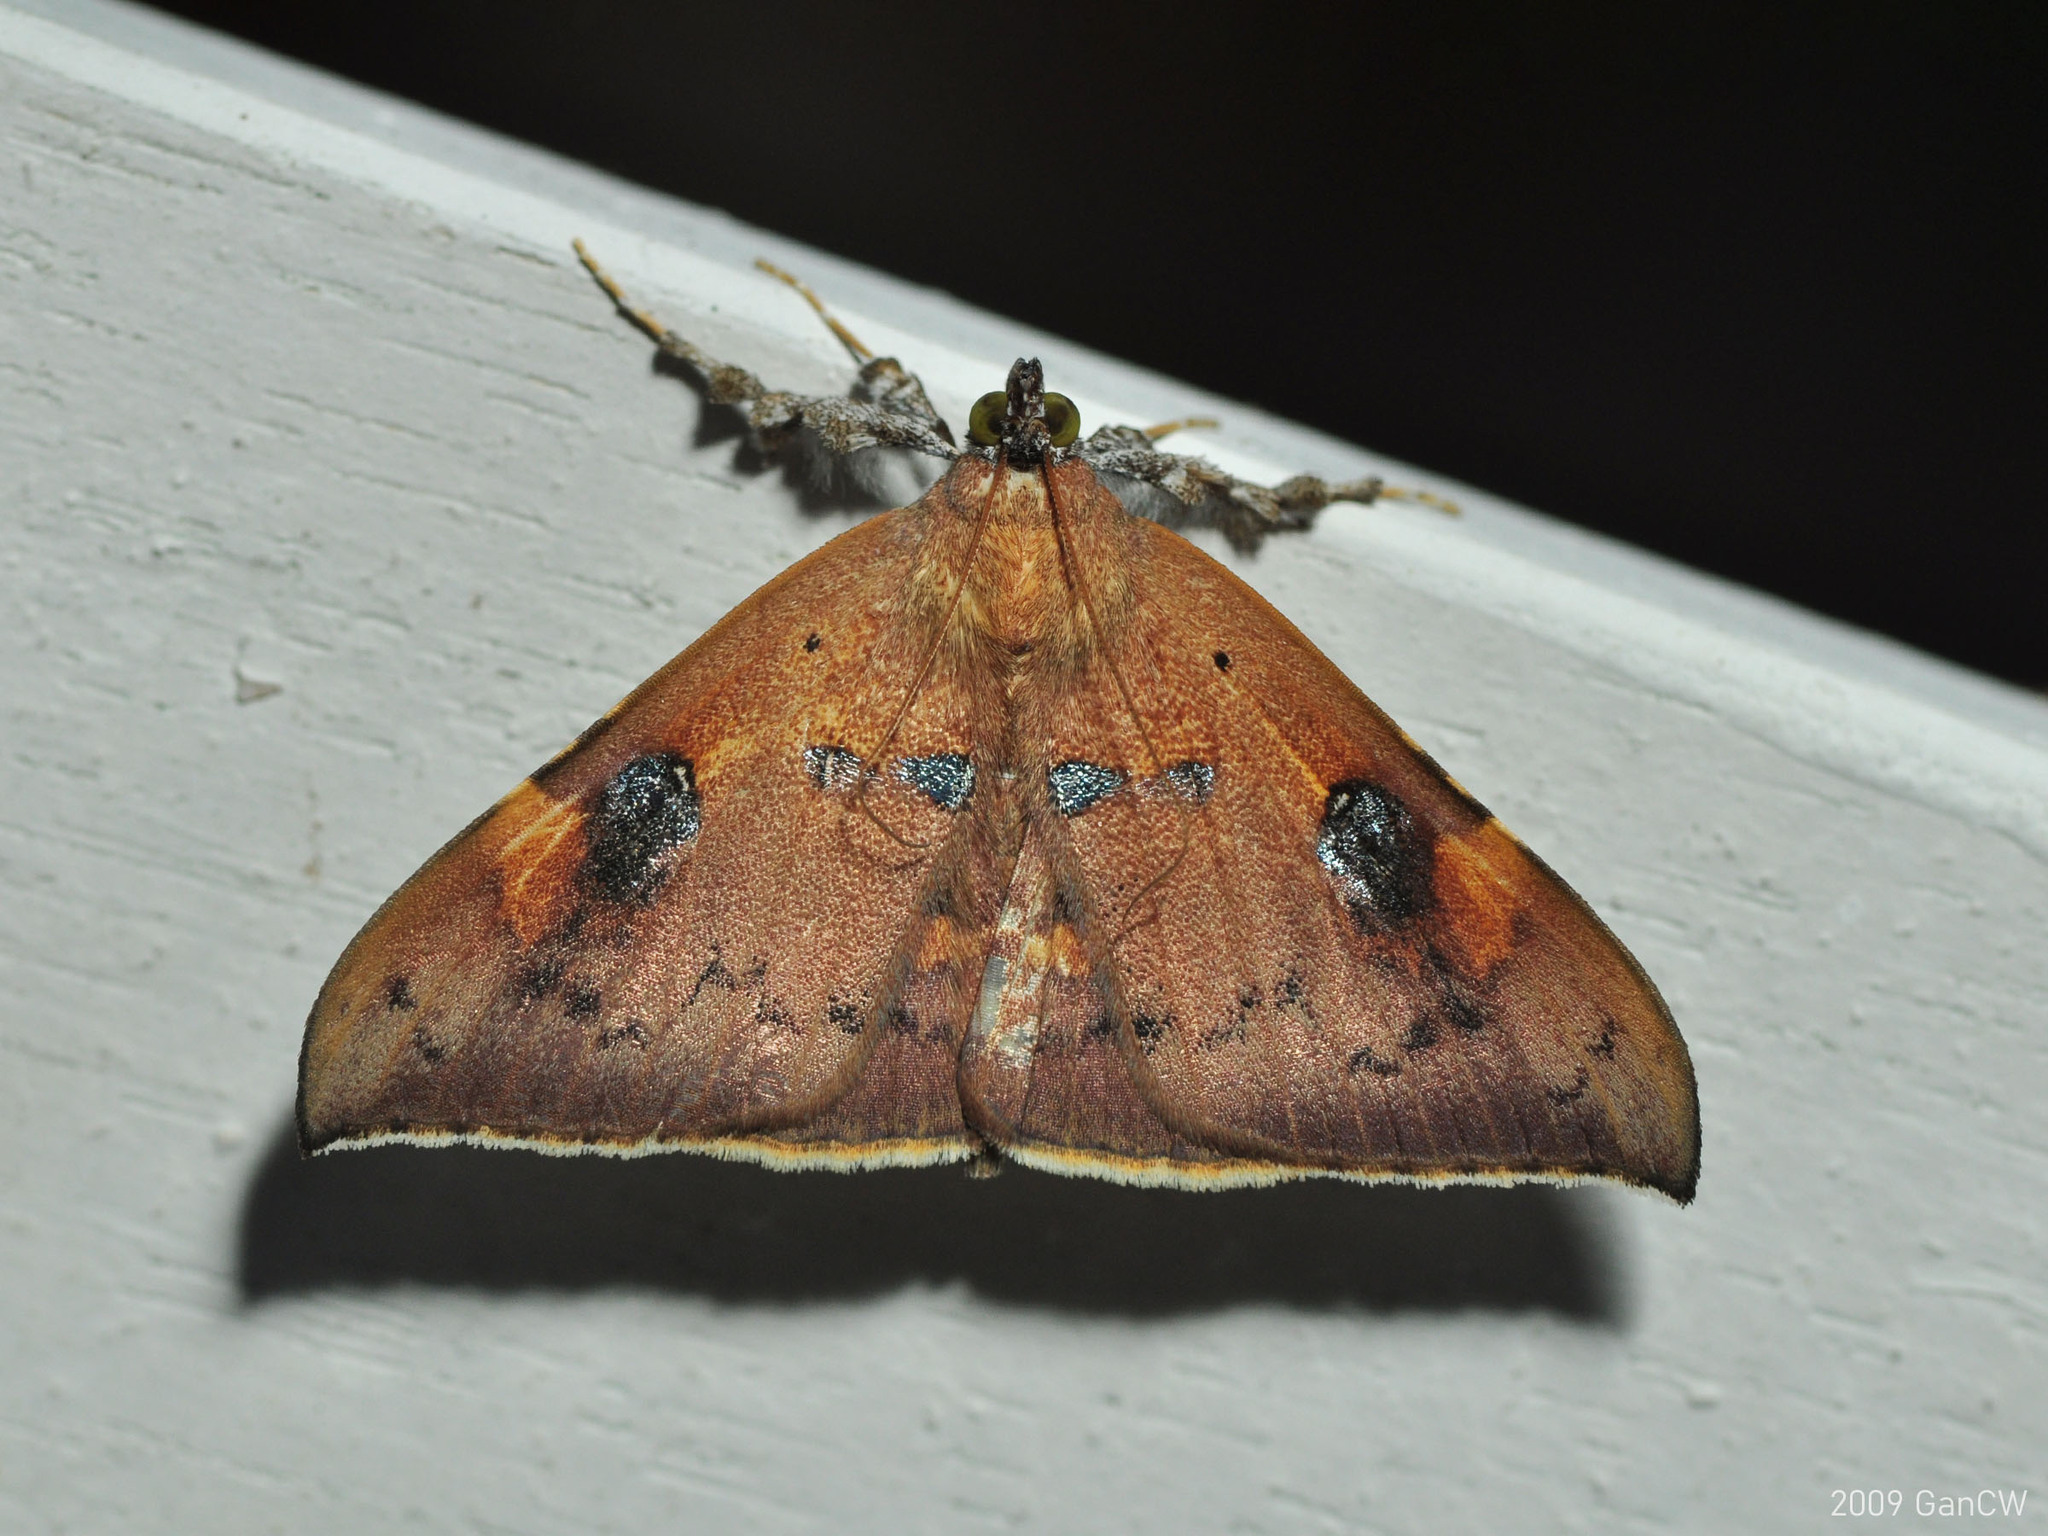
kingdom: Animalia
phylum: Arthropoda
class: Insecta
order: Lepidoptera
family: Erebidae
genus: Rectipalpula
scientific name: Rectipalpula billeti
